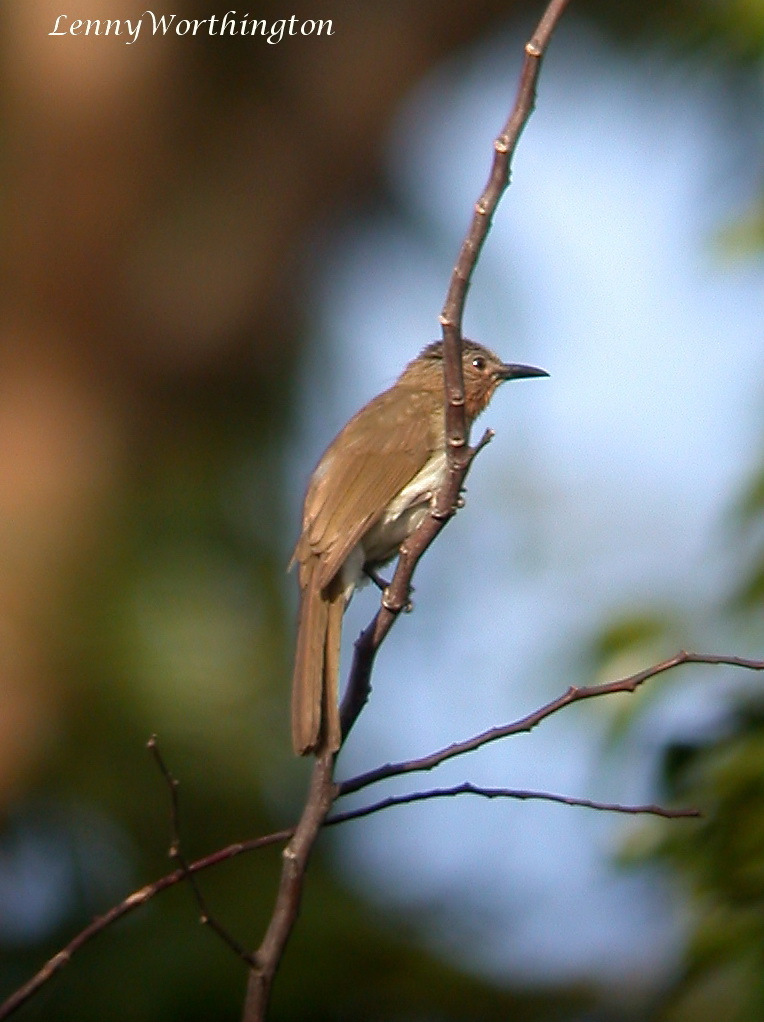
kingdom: Animalia
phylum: Chordata
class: Aves
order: Passeriformes
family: Pycnonotidae
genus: Hypsipetes
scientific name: Hypsipetes philippinus
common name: Philippine bulbul
